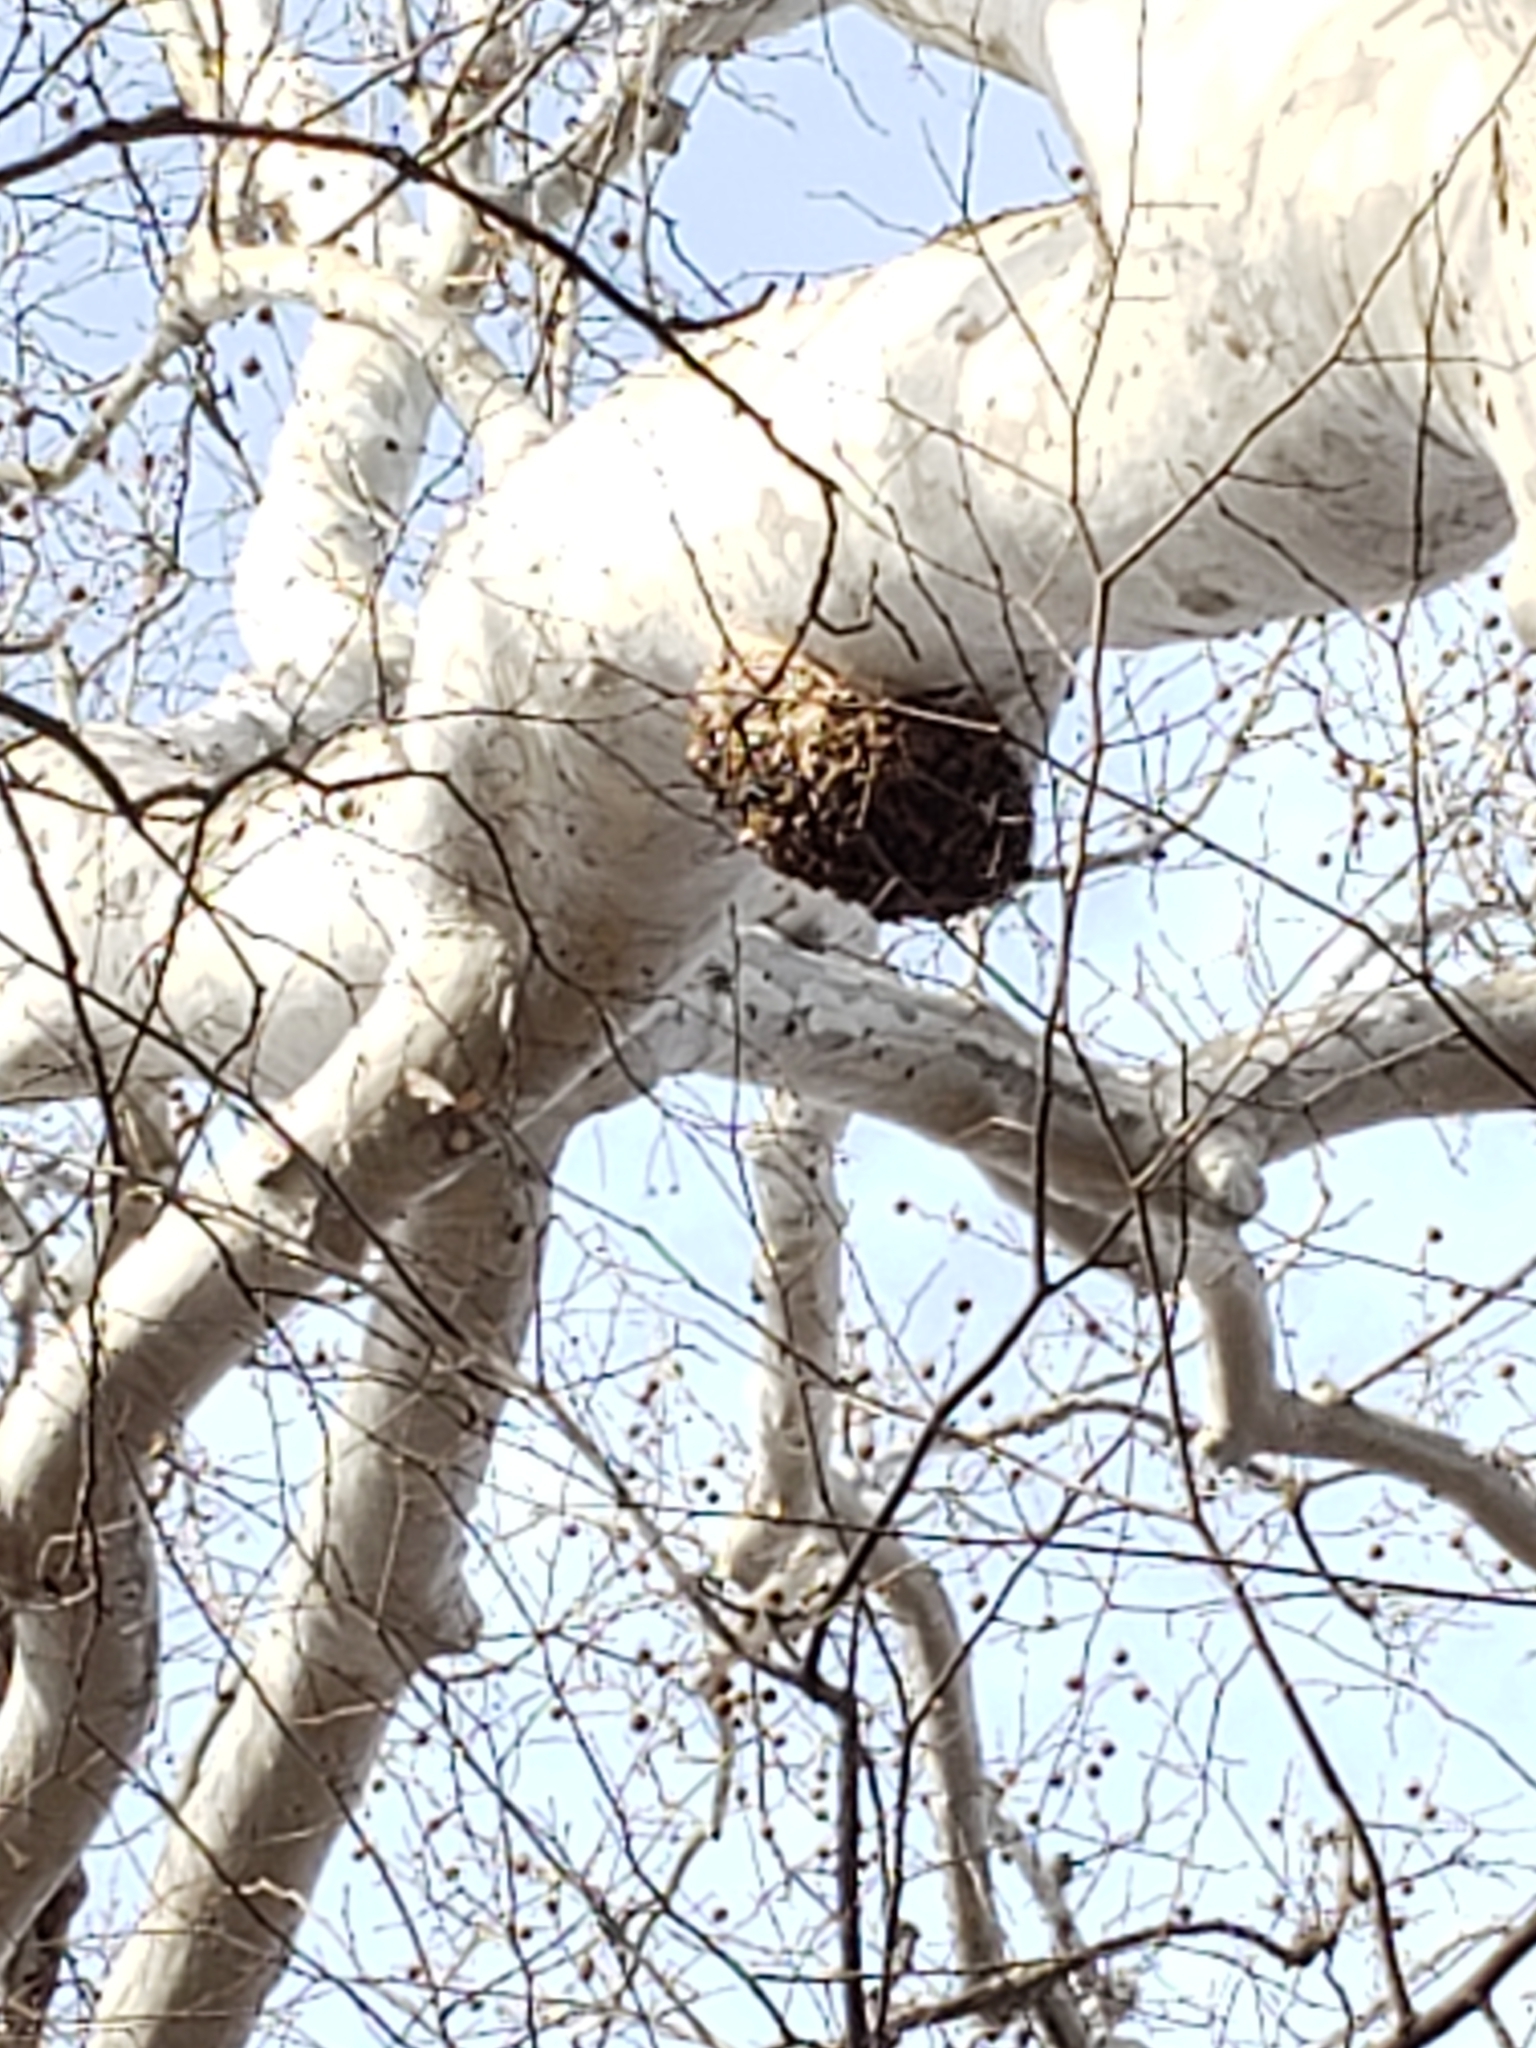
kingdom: Plantae
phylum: Tracheophyta
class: Magnoliopsida
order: Proteales
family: Platanaceae
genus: Platanus
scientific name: Platanus occidentalis
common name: American sycamore
